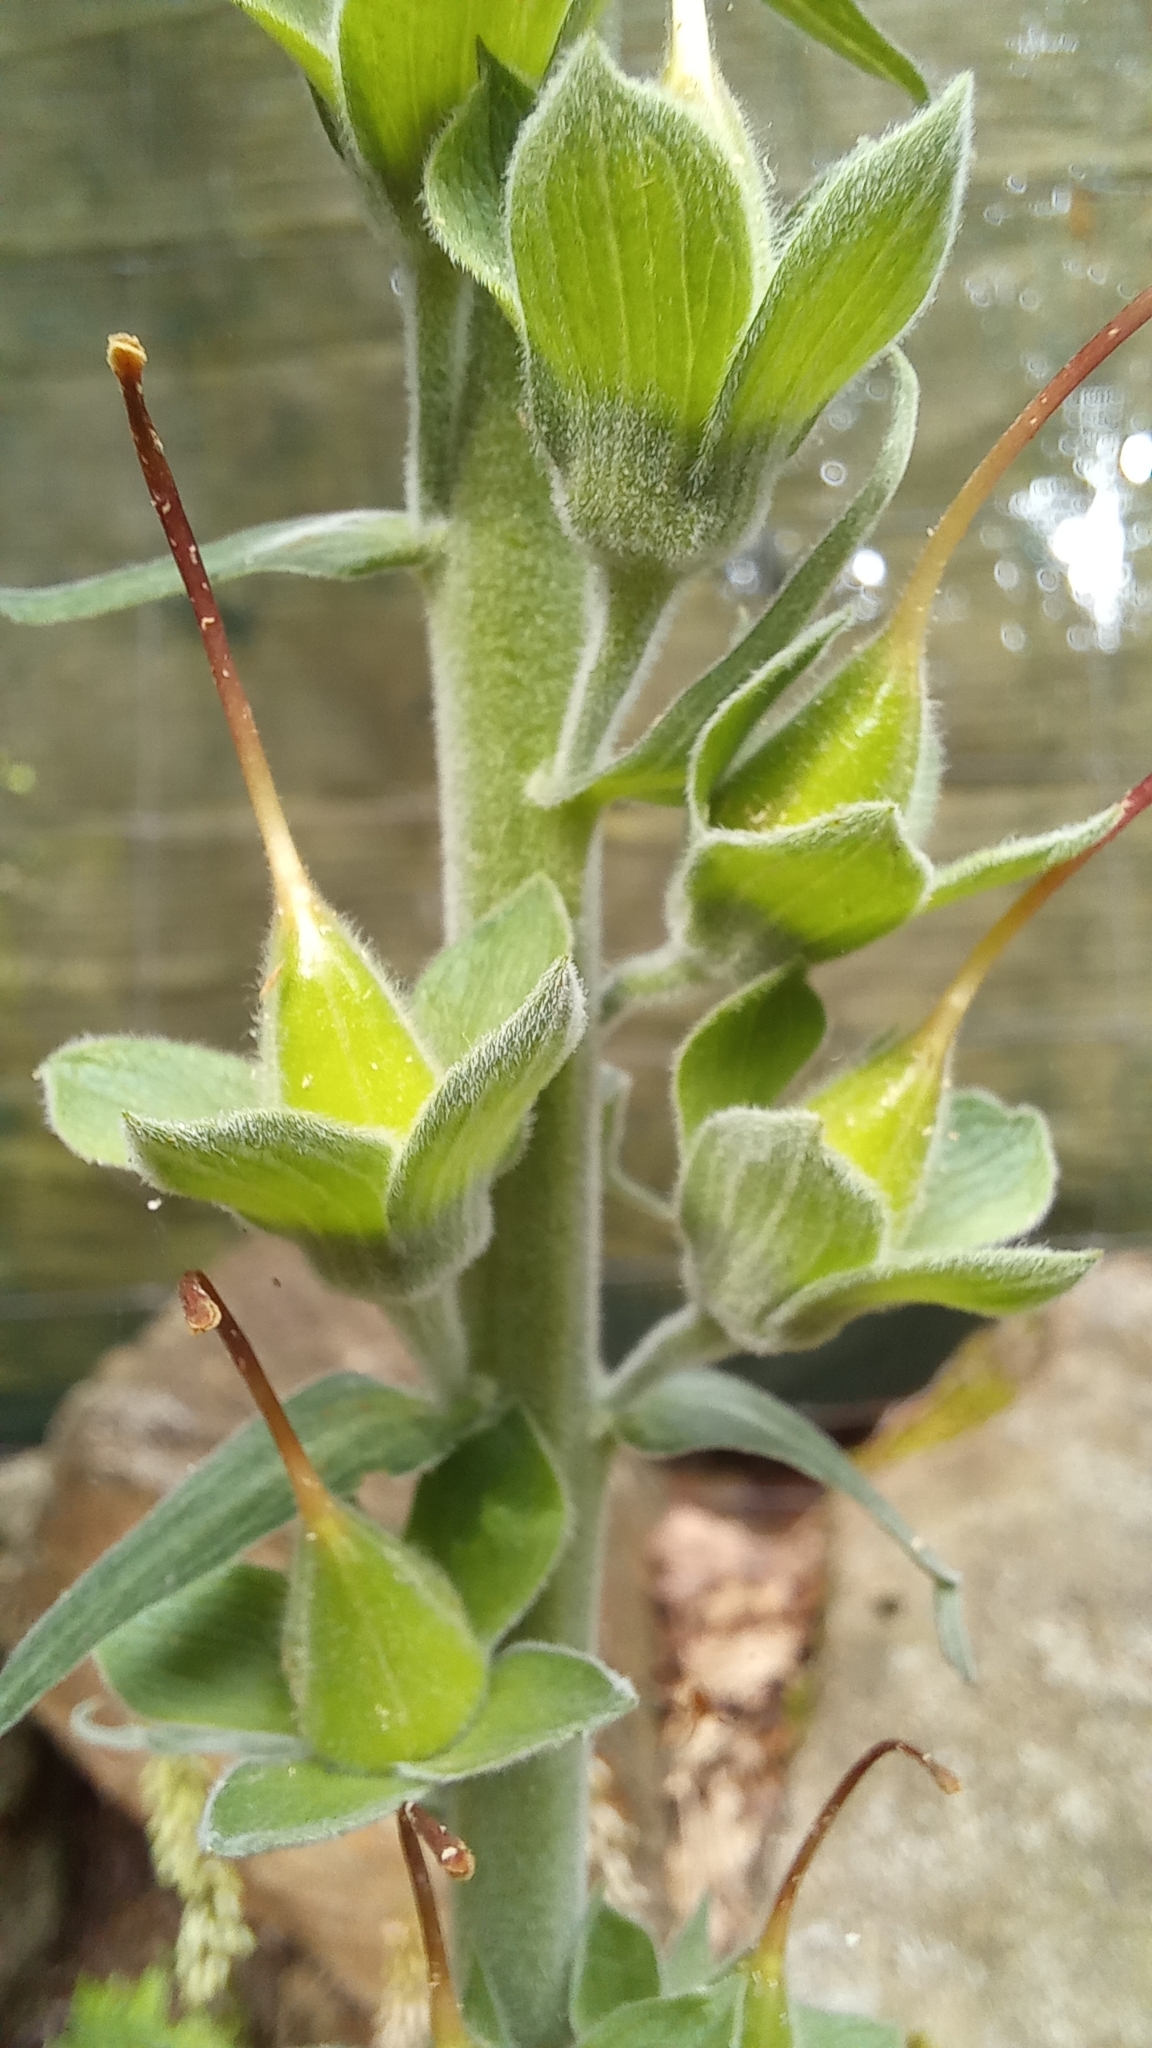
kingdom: Plantae
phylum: Tracheophyta
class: Magnoliopsida
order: Lamiales
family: Plantaginaceae
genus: Digitalis
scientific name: Digitalis purpurea
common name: Foxglove
